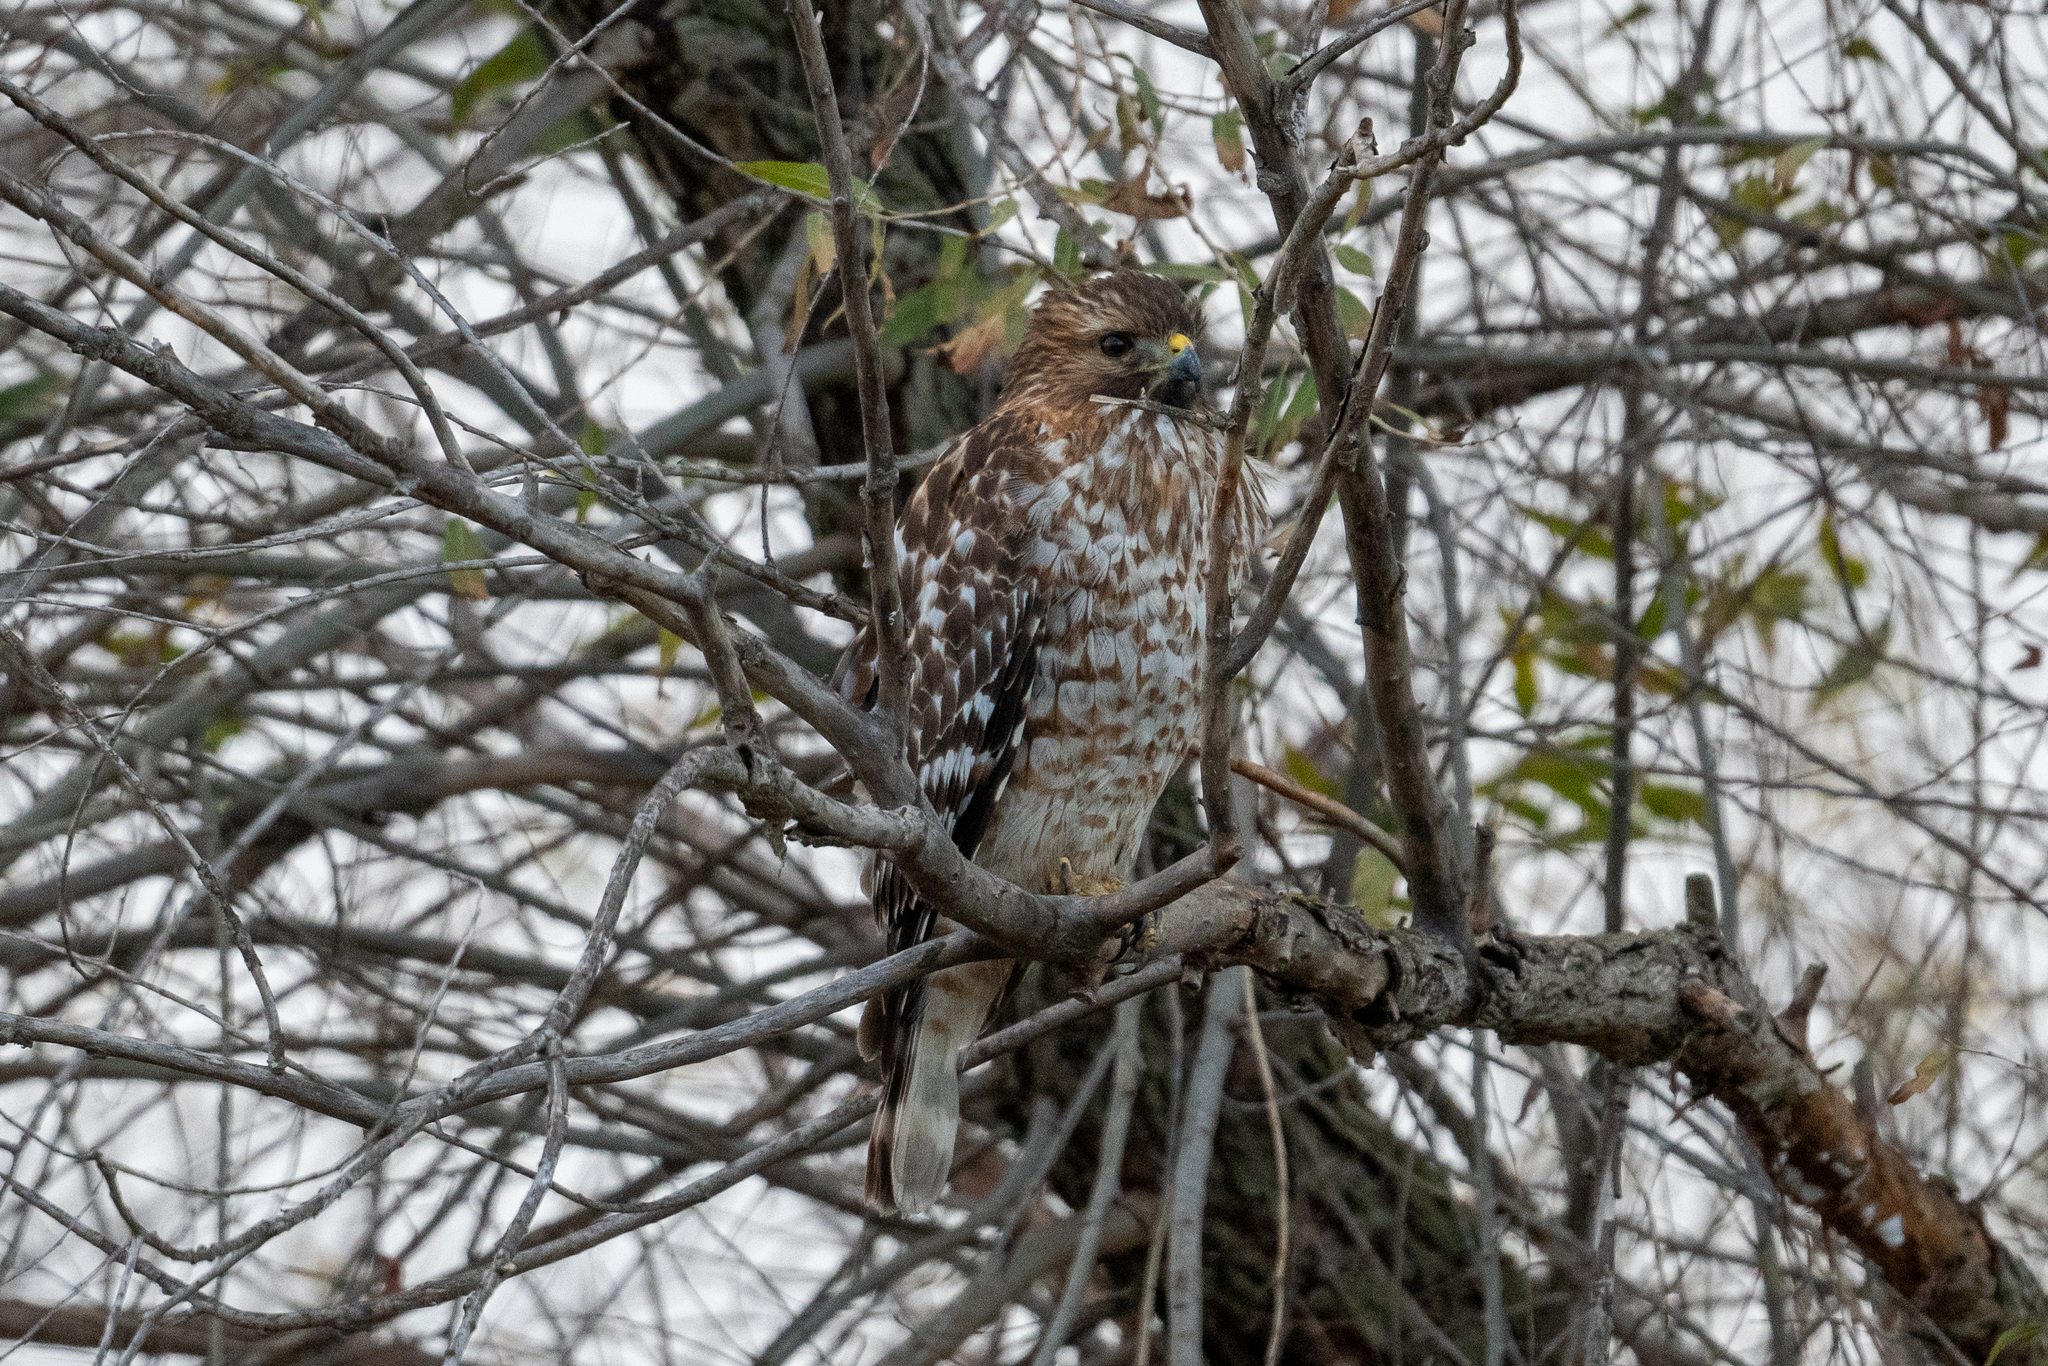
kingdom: Animalia
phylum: Chordata
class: Aves
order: Accipitriformes
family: Accipitridae
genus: Buteo
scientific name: Buteo lineatus
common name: Red-shouldered hawk
